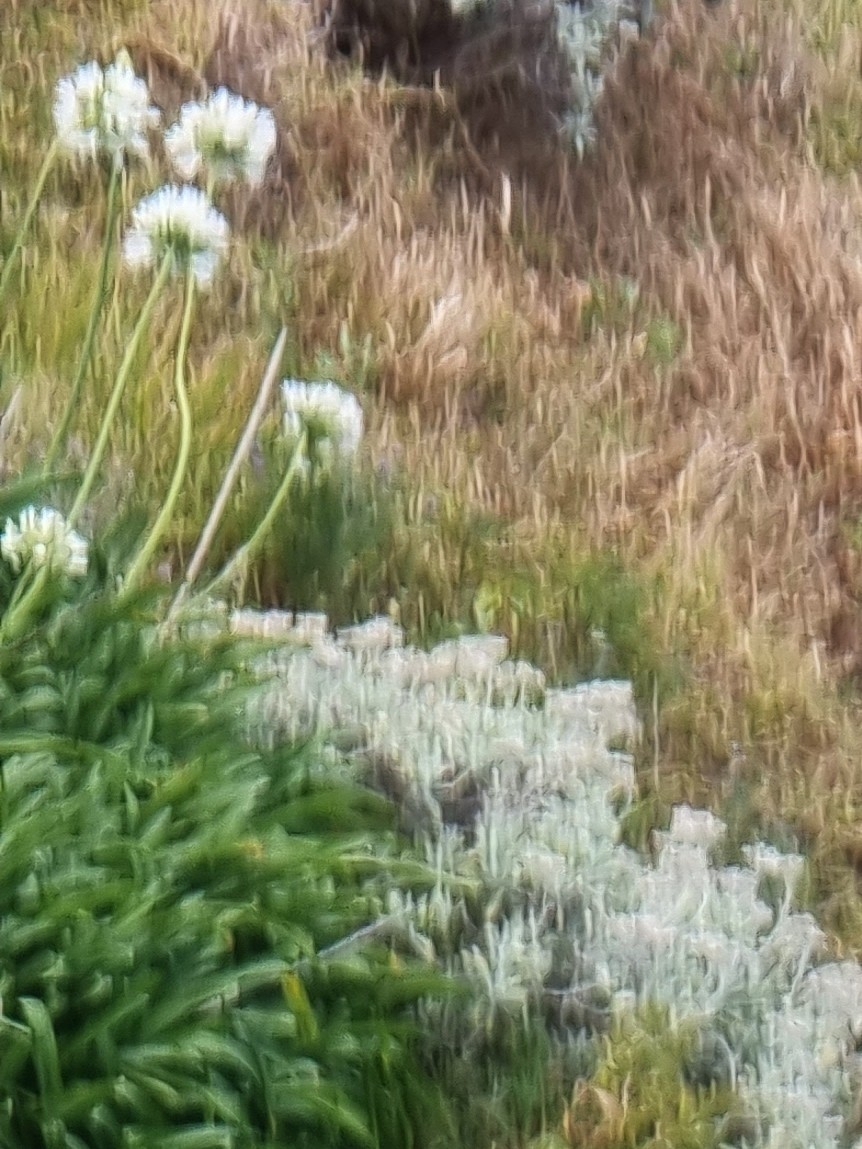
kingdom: Plantae
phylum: Tracheophyta
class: Liliopsida
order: Asparagales
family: Amaryllidaceae
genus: Agapanthus
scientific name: Agapanthus praecox
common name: African-lily
